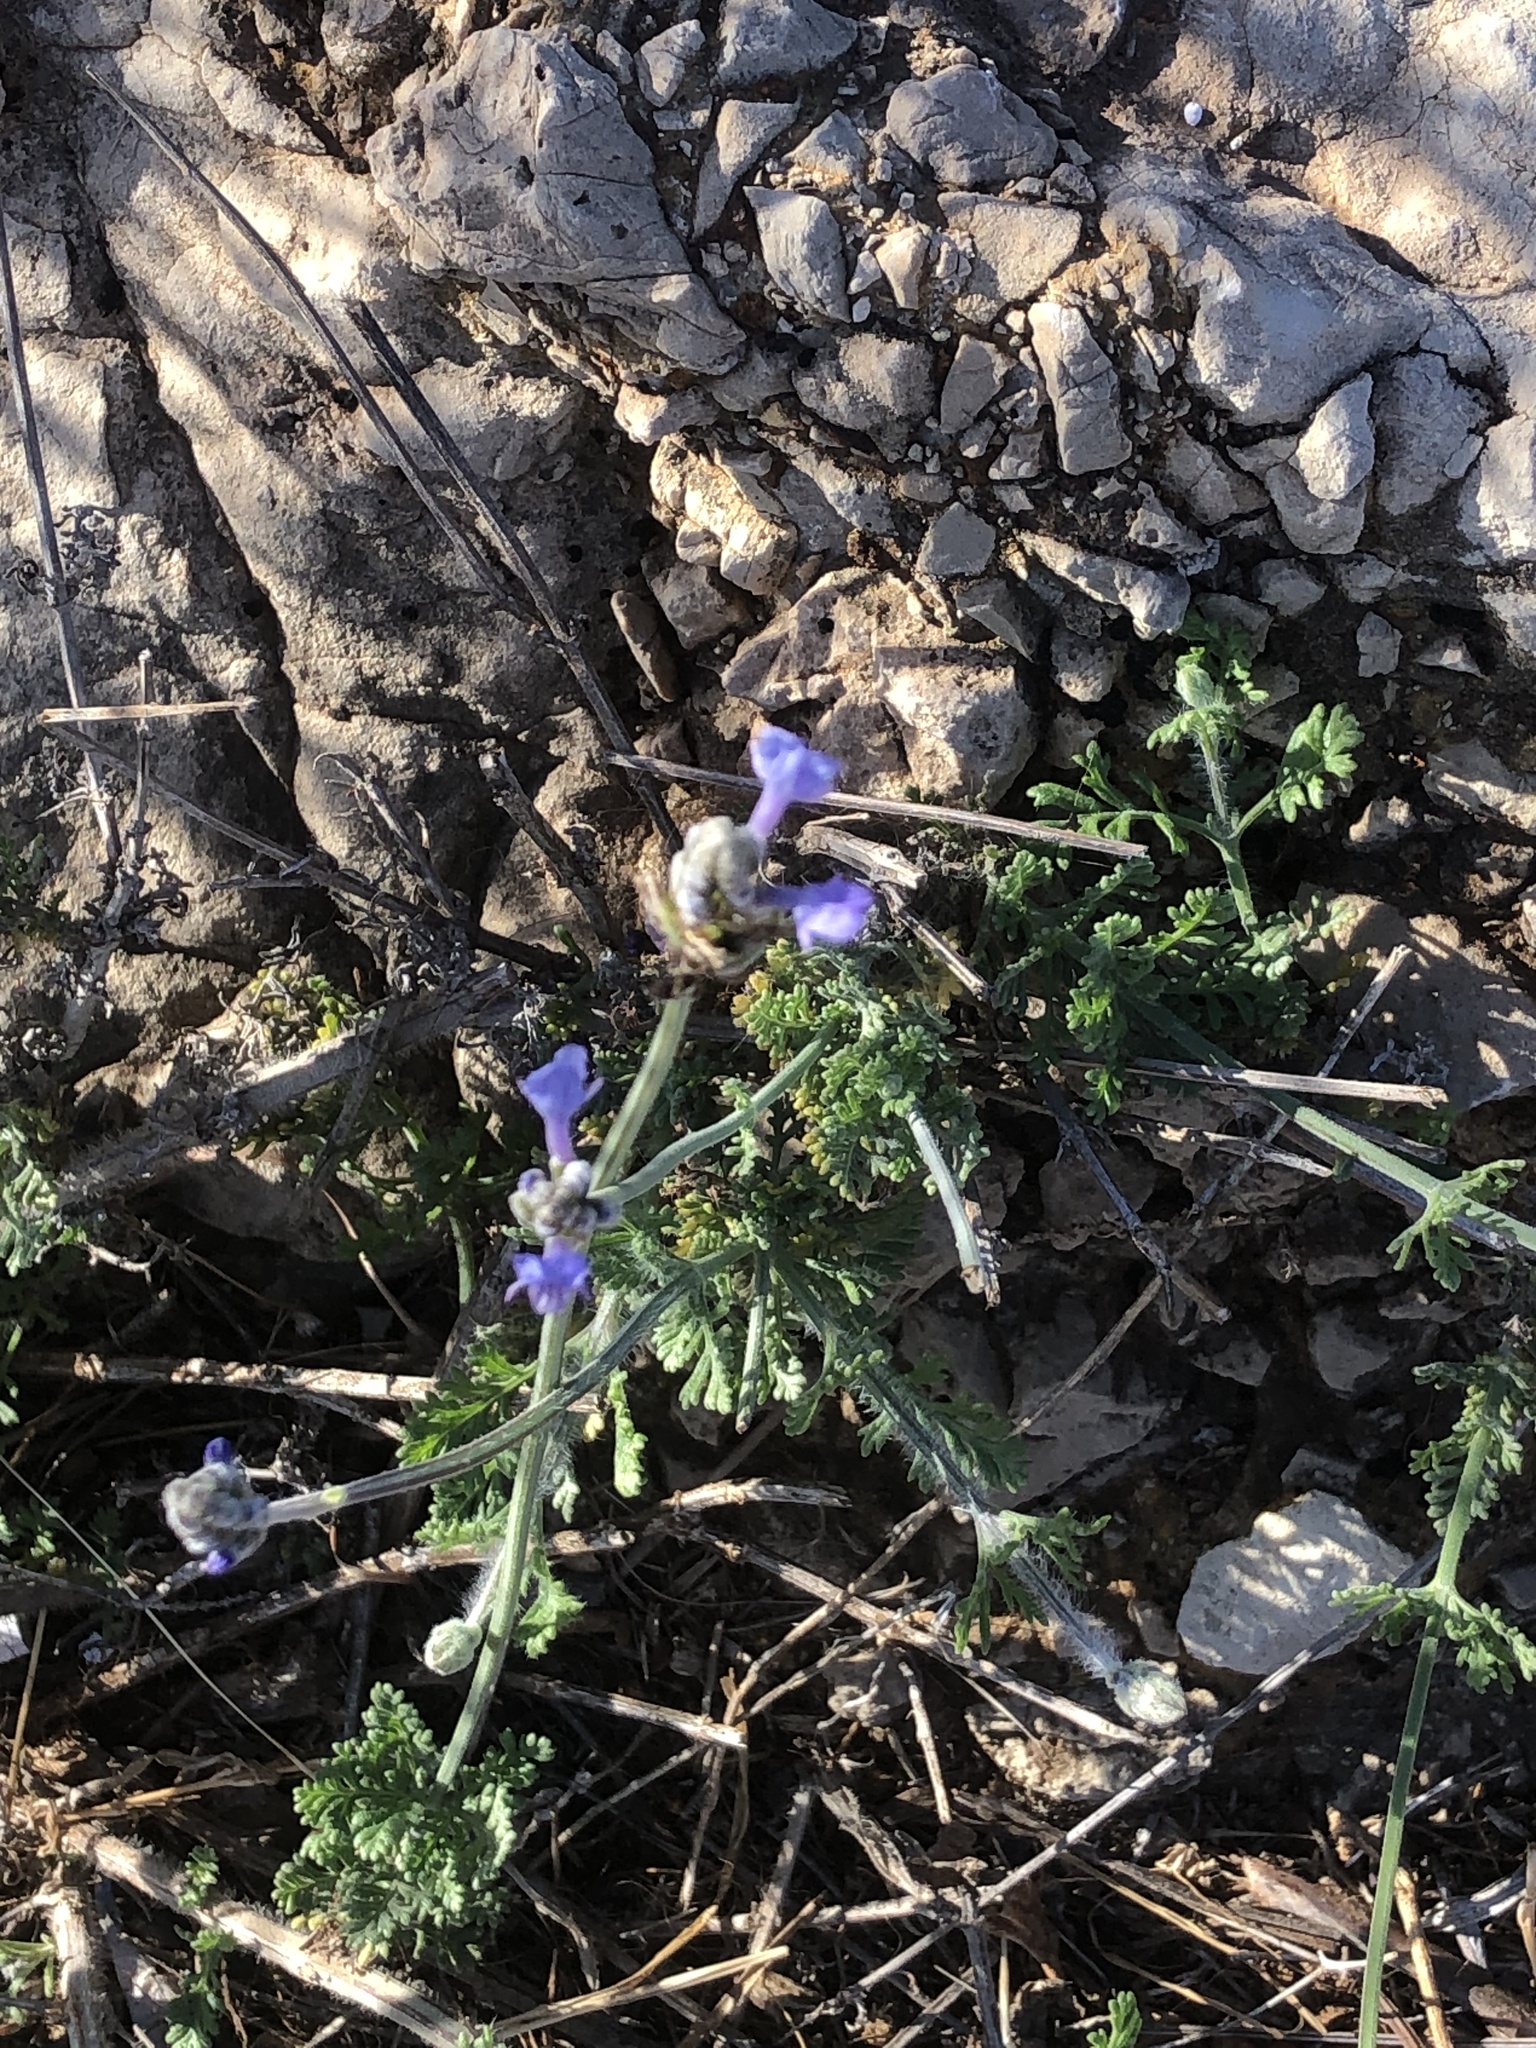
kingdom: Plantae
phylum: Tracheophyta
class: Magnoliopsida
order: Lamiales
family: Lamiaceae
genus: Lavandula
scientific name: Lavandula multifida
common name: Fern-leaf lavender
